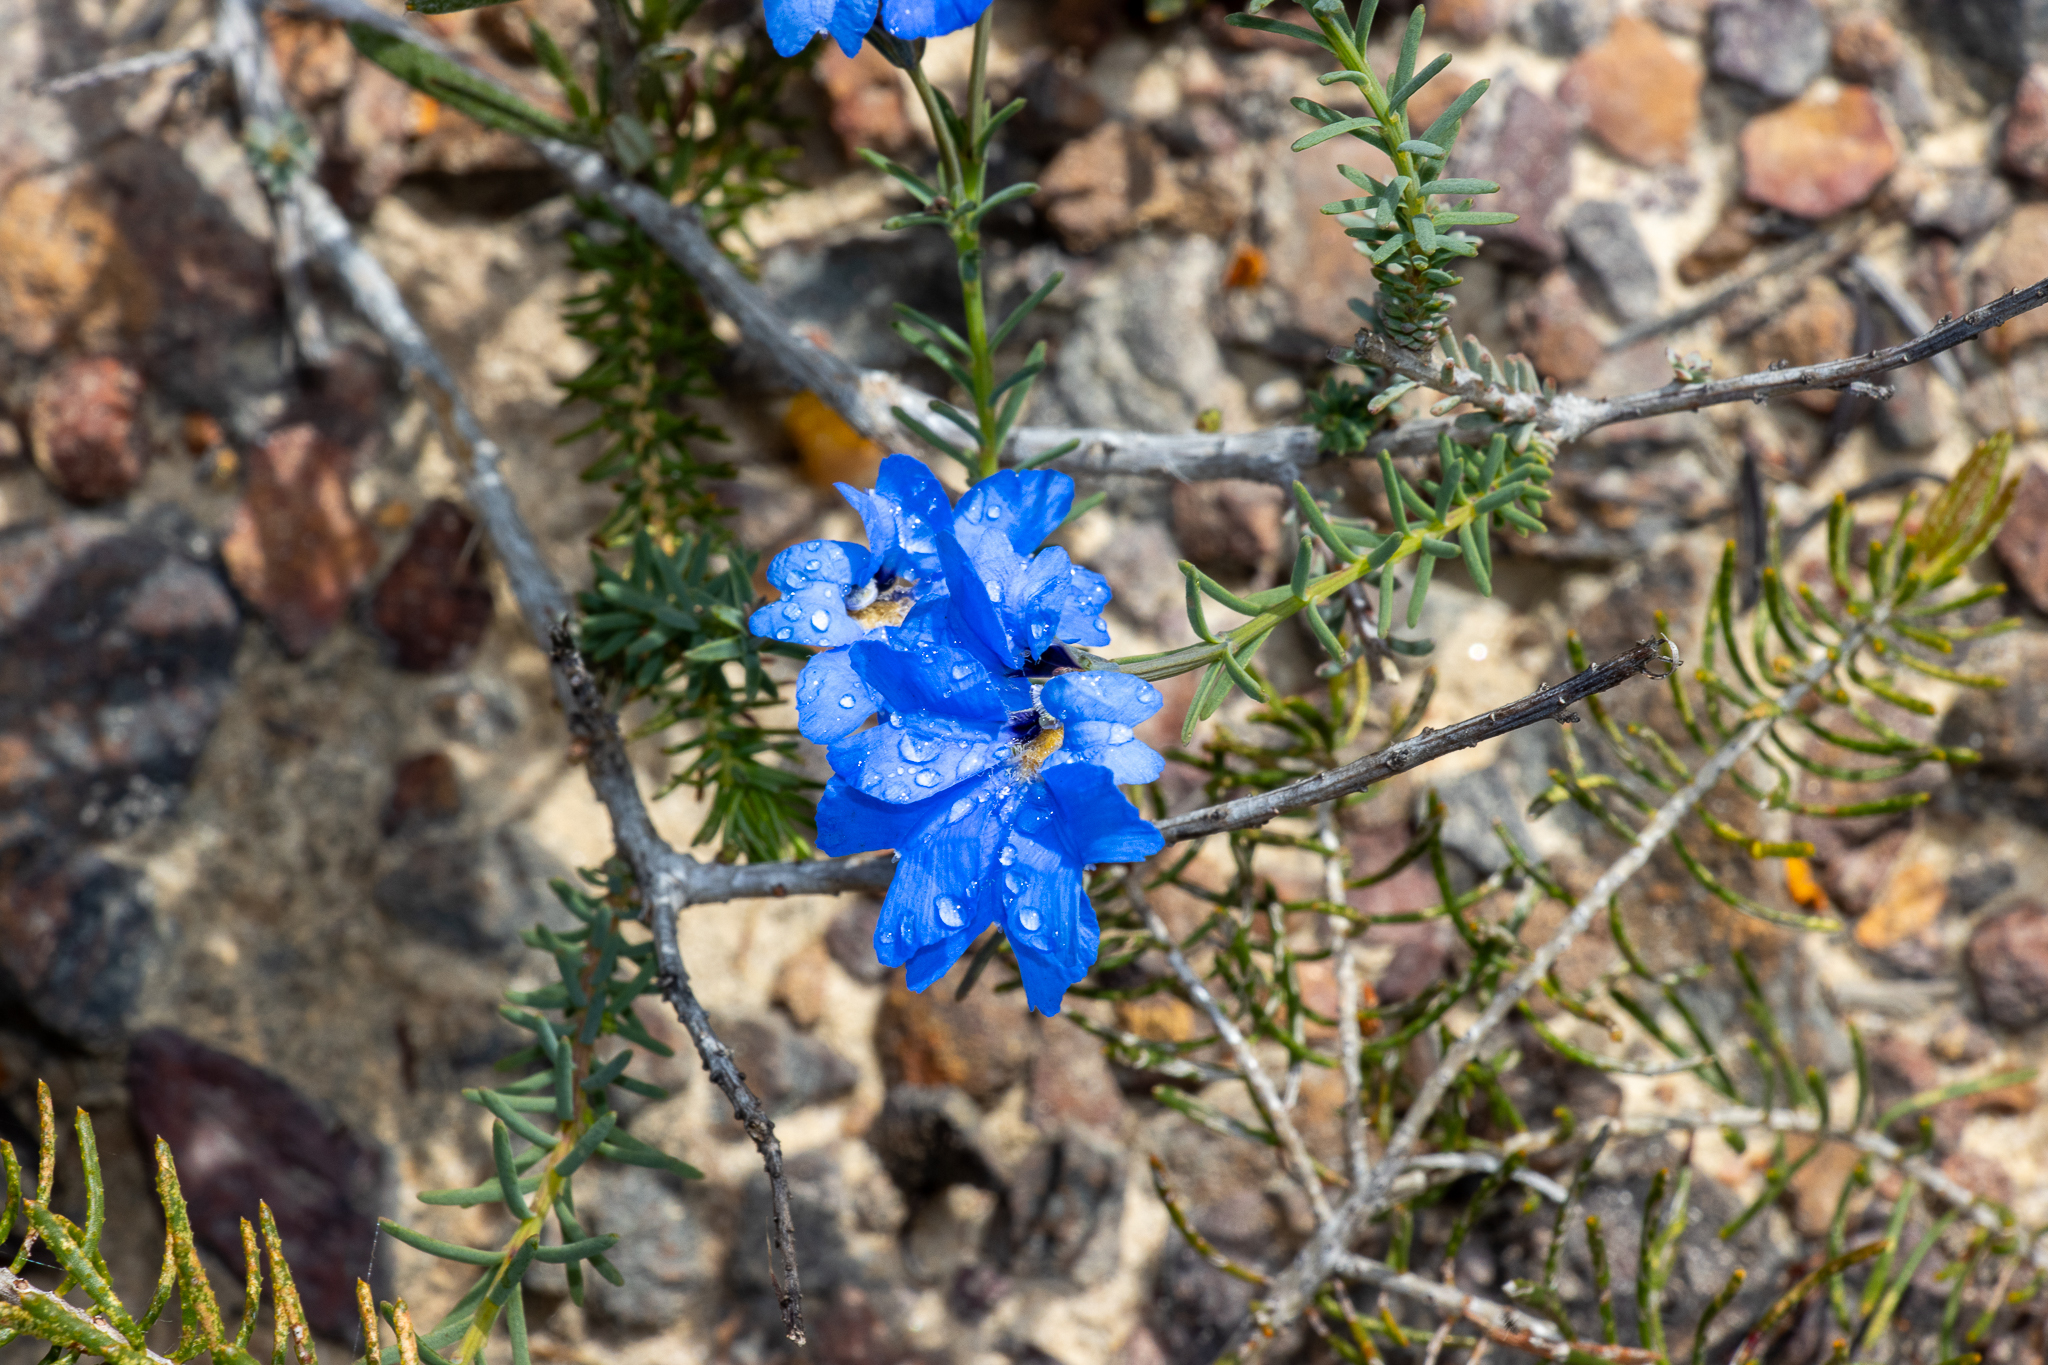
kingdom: Plantae
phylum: Tracheophyta
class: Magnoliopsida
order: Asterales
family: Goodeniaceae
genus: Lechenaultia
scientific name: Lechenaultia biloba
